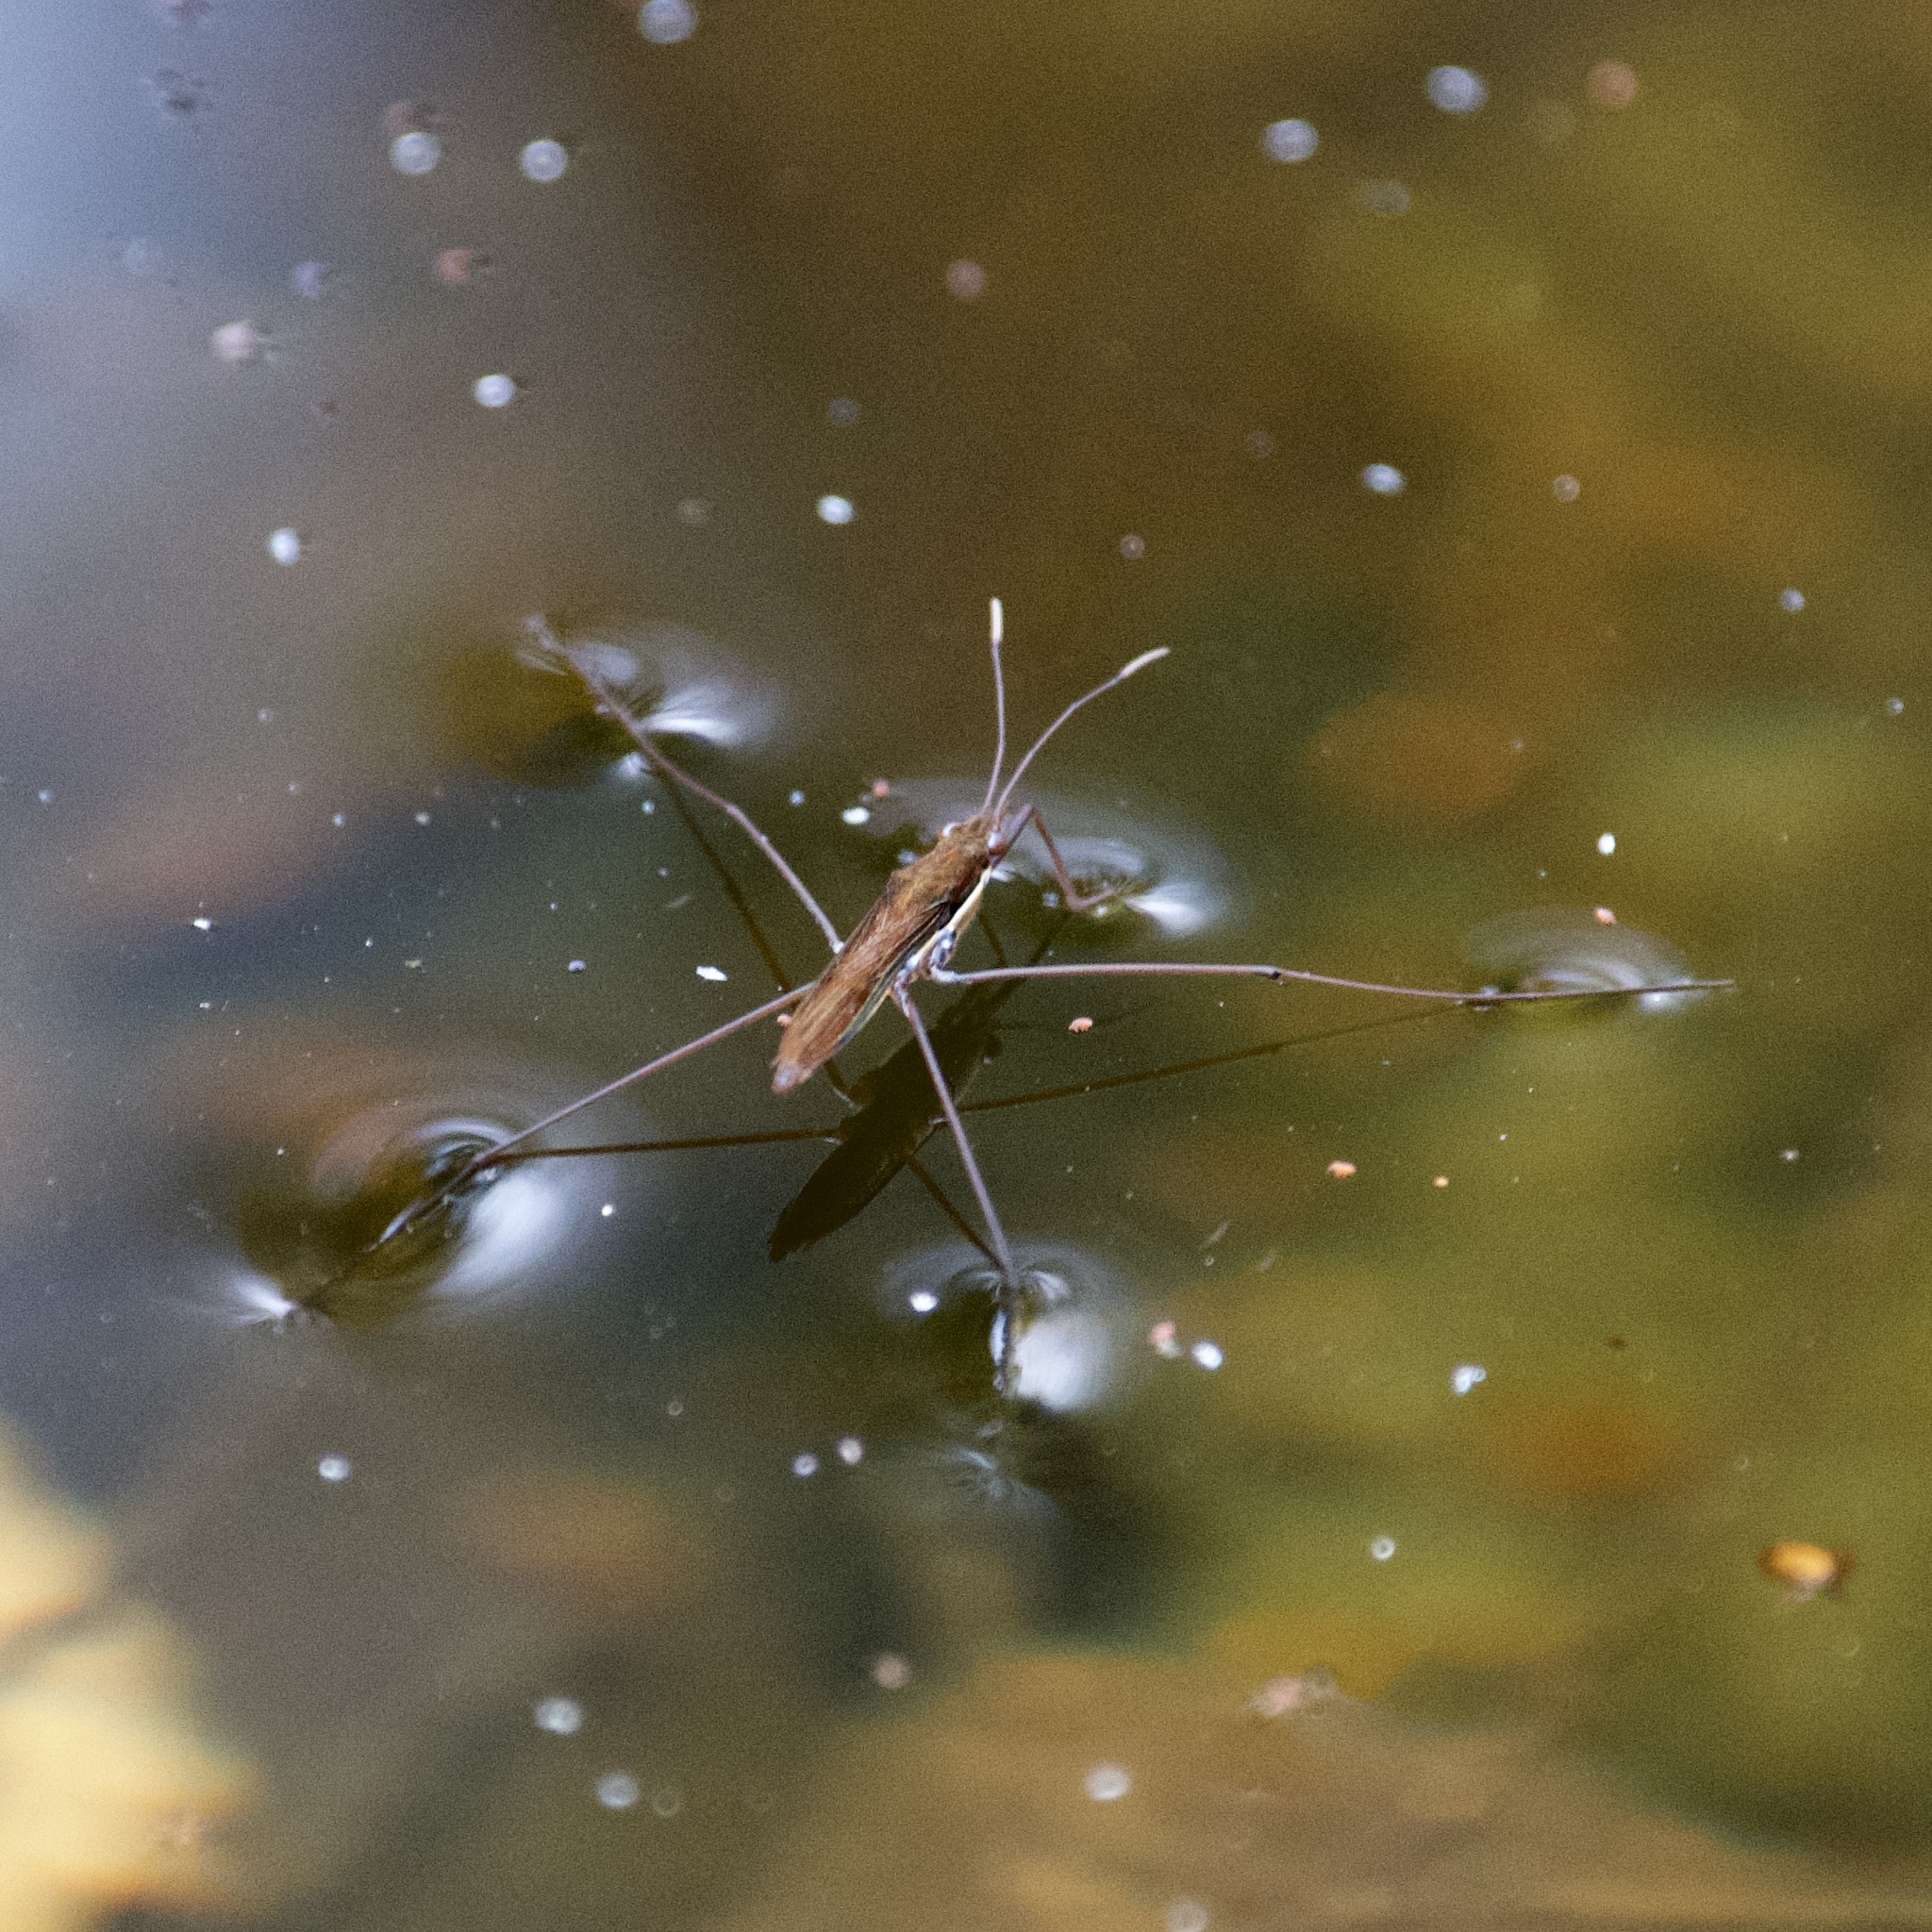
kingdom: Animalia
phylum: Arthropoda
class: Insecta
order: Hemiptera
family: Gerridae
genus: Limnoporus
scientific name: Limnoporus dissortis
